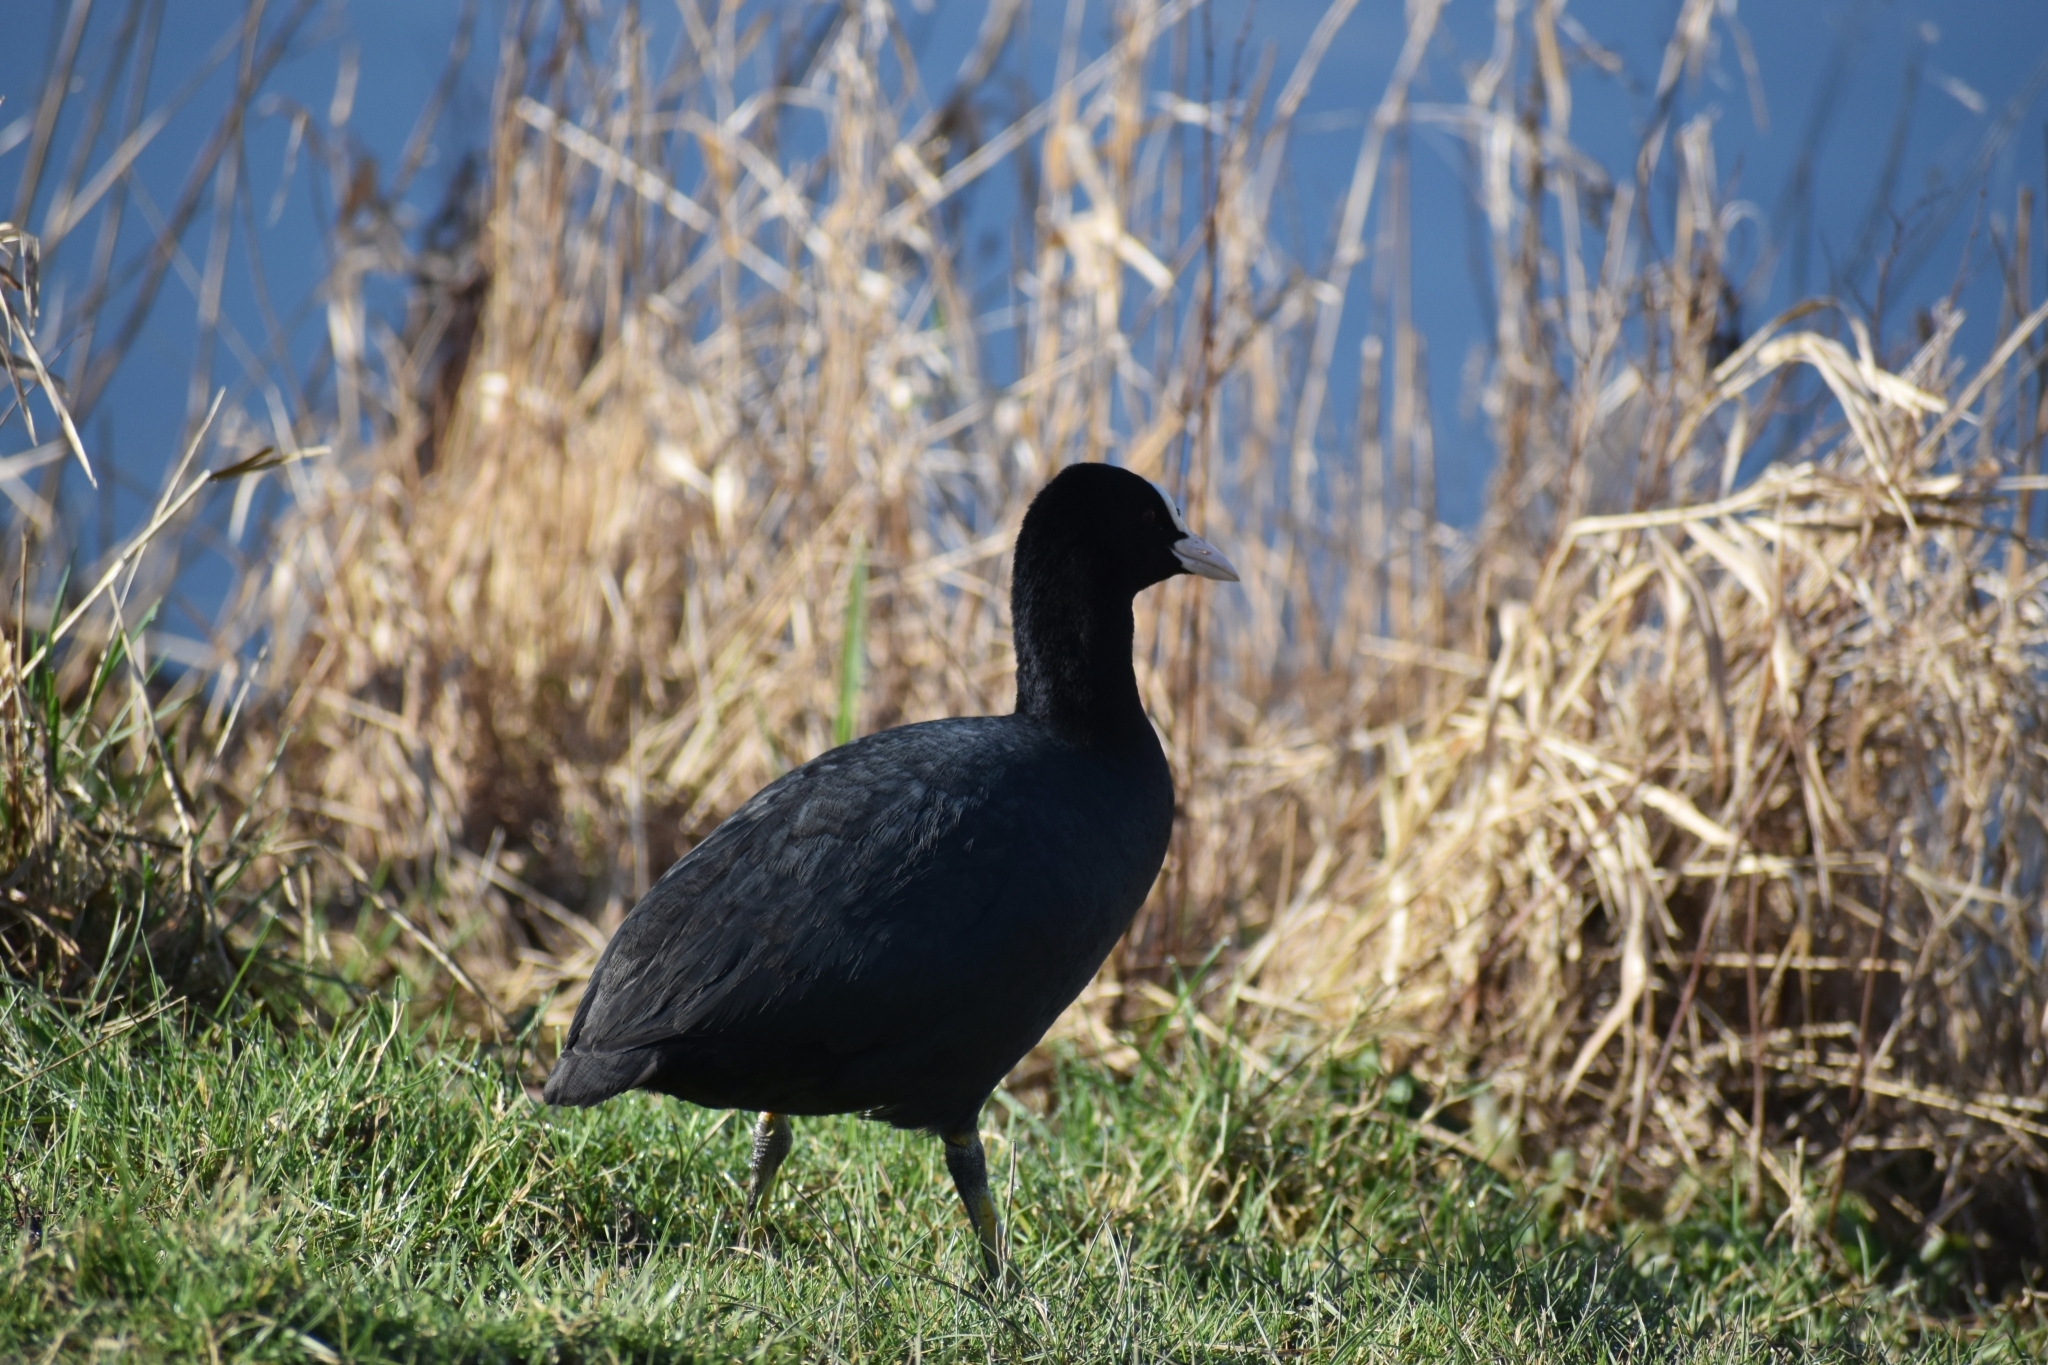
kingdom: Animalia
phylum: Chordata
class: Aves
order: Gruiformes
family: Rallidae
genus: Fulica
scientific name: Fulica atra
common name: Eurasian coot
